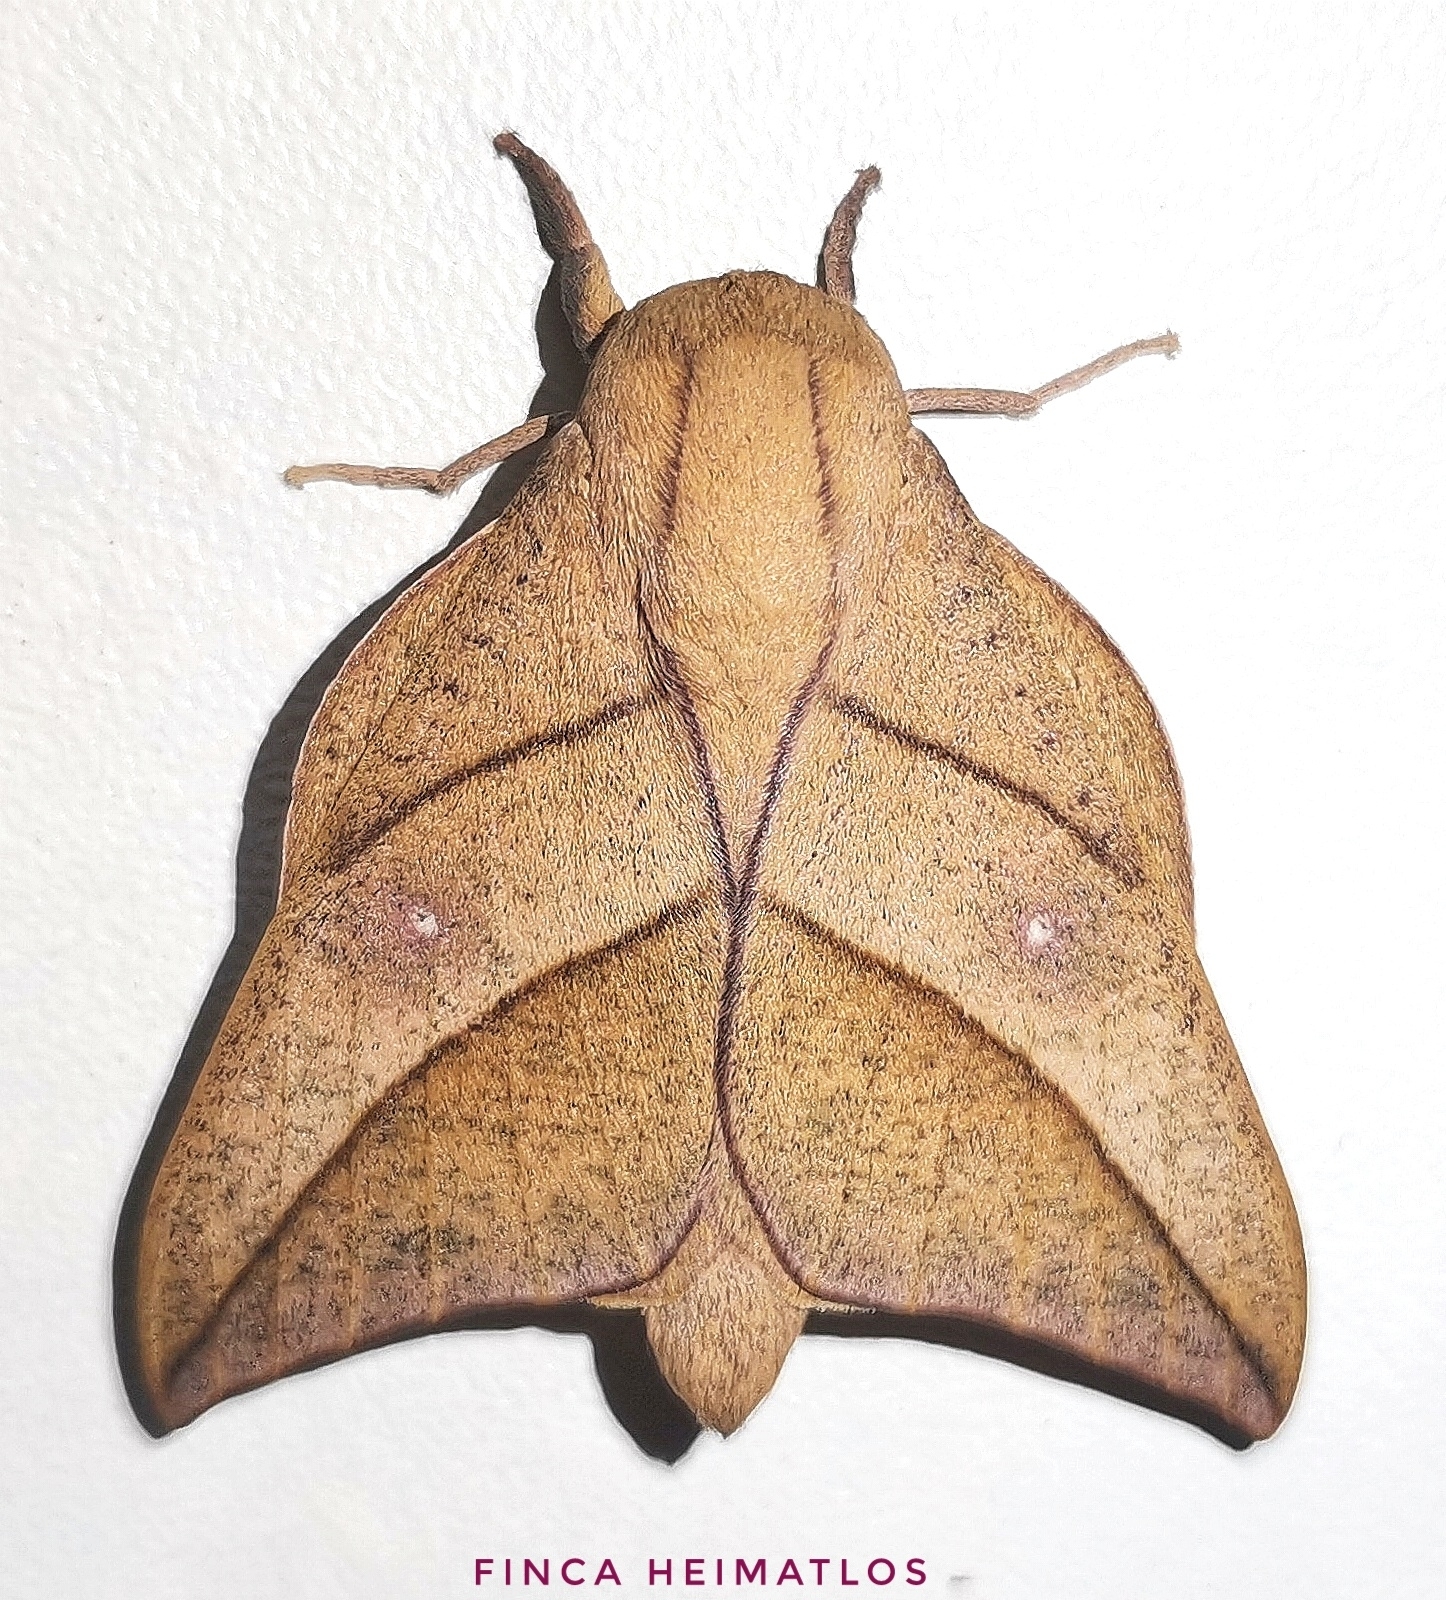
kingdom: Animalia
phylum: Arthropoda
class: Insecta
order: Lepidoptera
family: Saturniidae
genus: Adeloneivaia
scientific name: Adeloneivaia acuta
